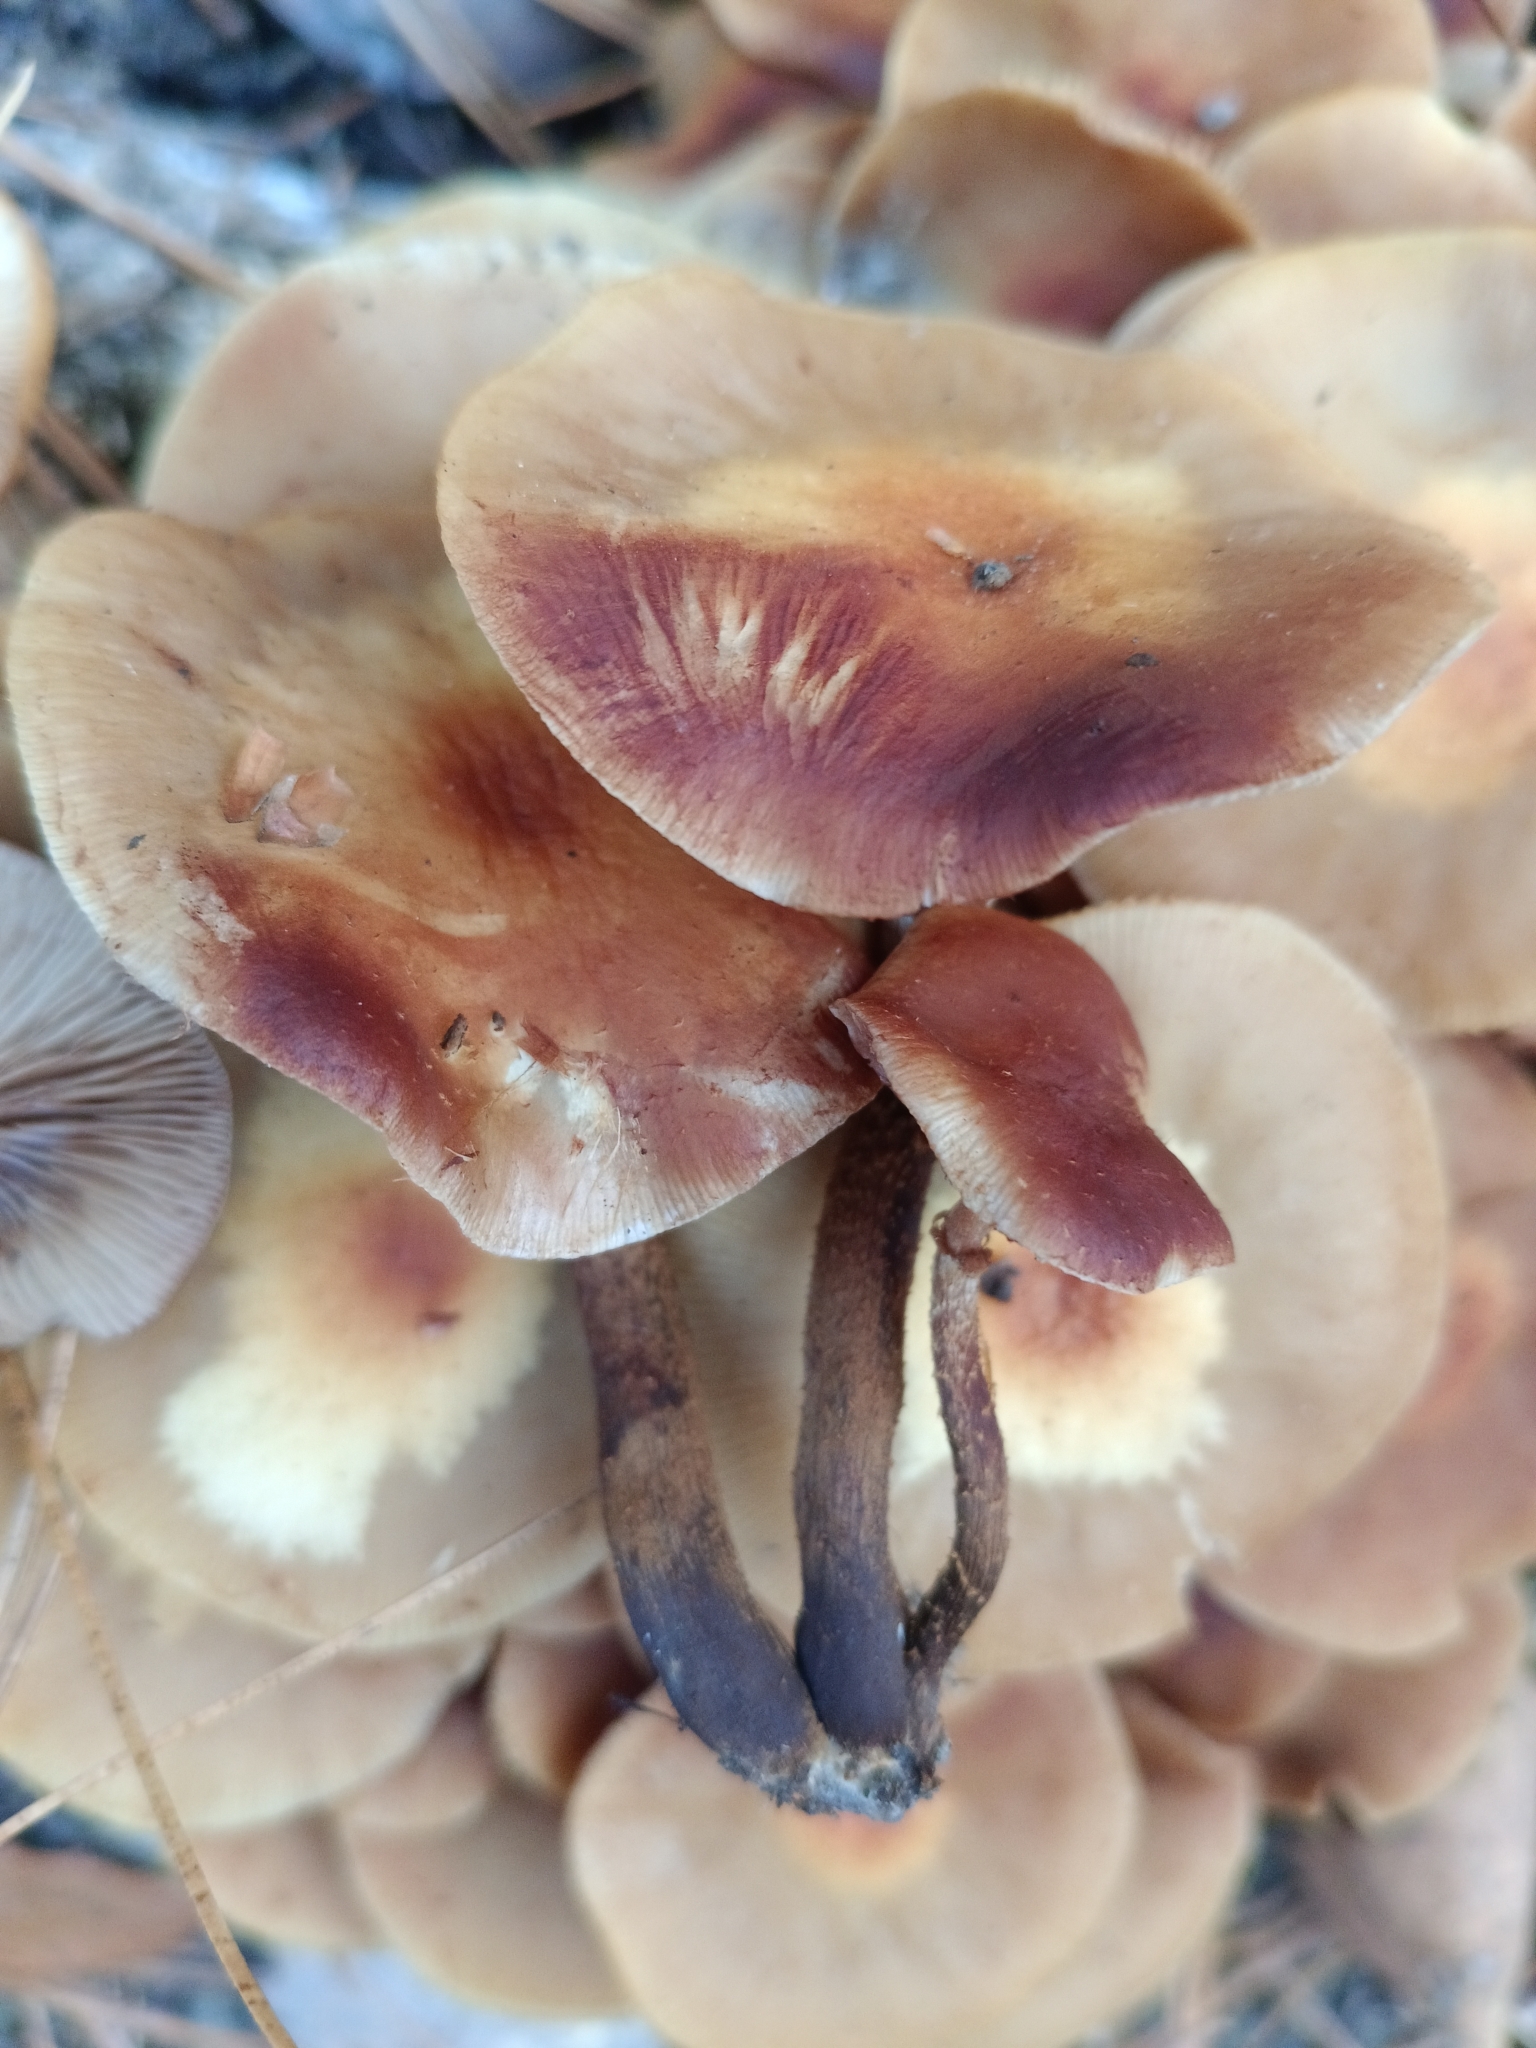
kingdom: Fungi
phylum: Basidiomycota
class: Agaricomycetes
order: Agaricales
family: Strophariaceae
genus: Kuehneromyces
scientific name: Kuehneromyces mutabilis
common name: Sheathed woodtuft
